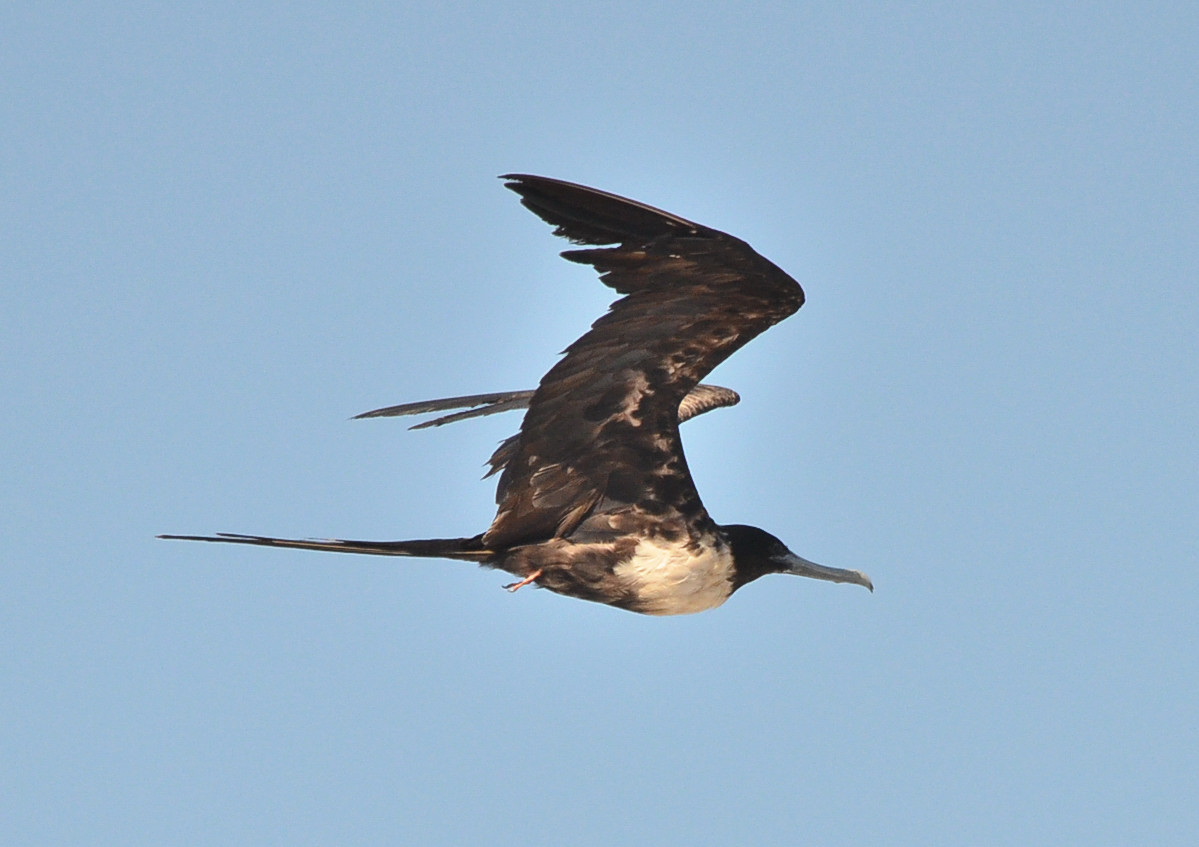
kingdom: Animalia
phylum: Chordata
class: Aves
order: Suliformes
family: Fregatidae
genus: Fregata
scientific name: Fregata magnificens
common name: Magnificent frigatebird
